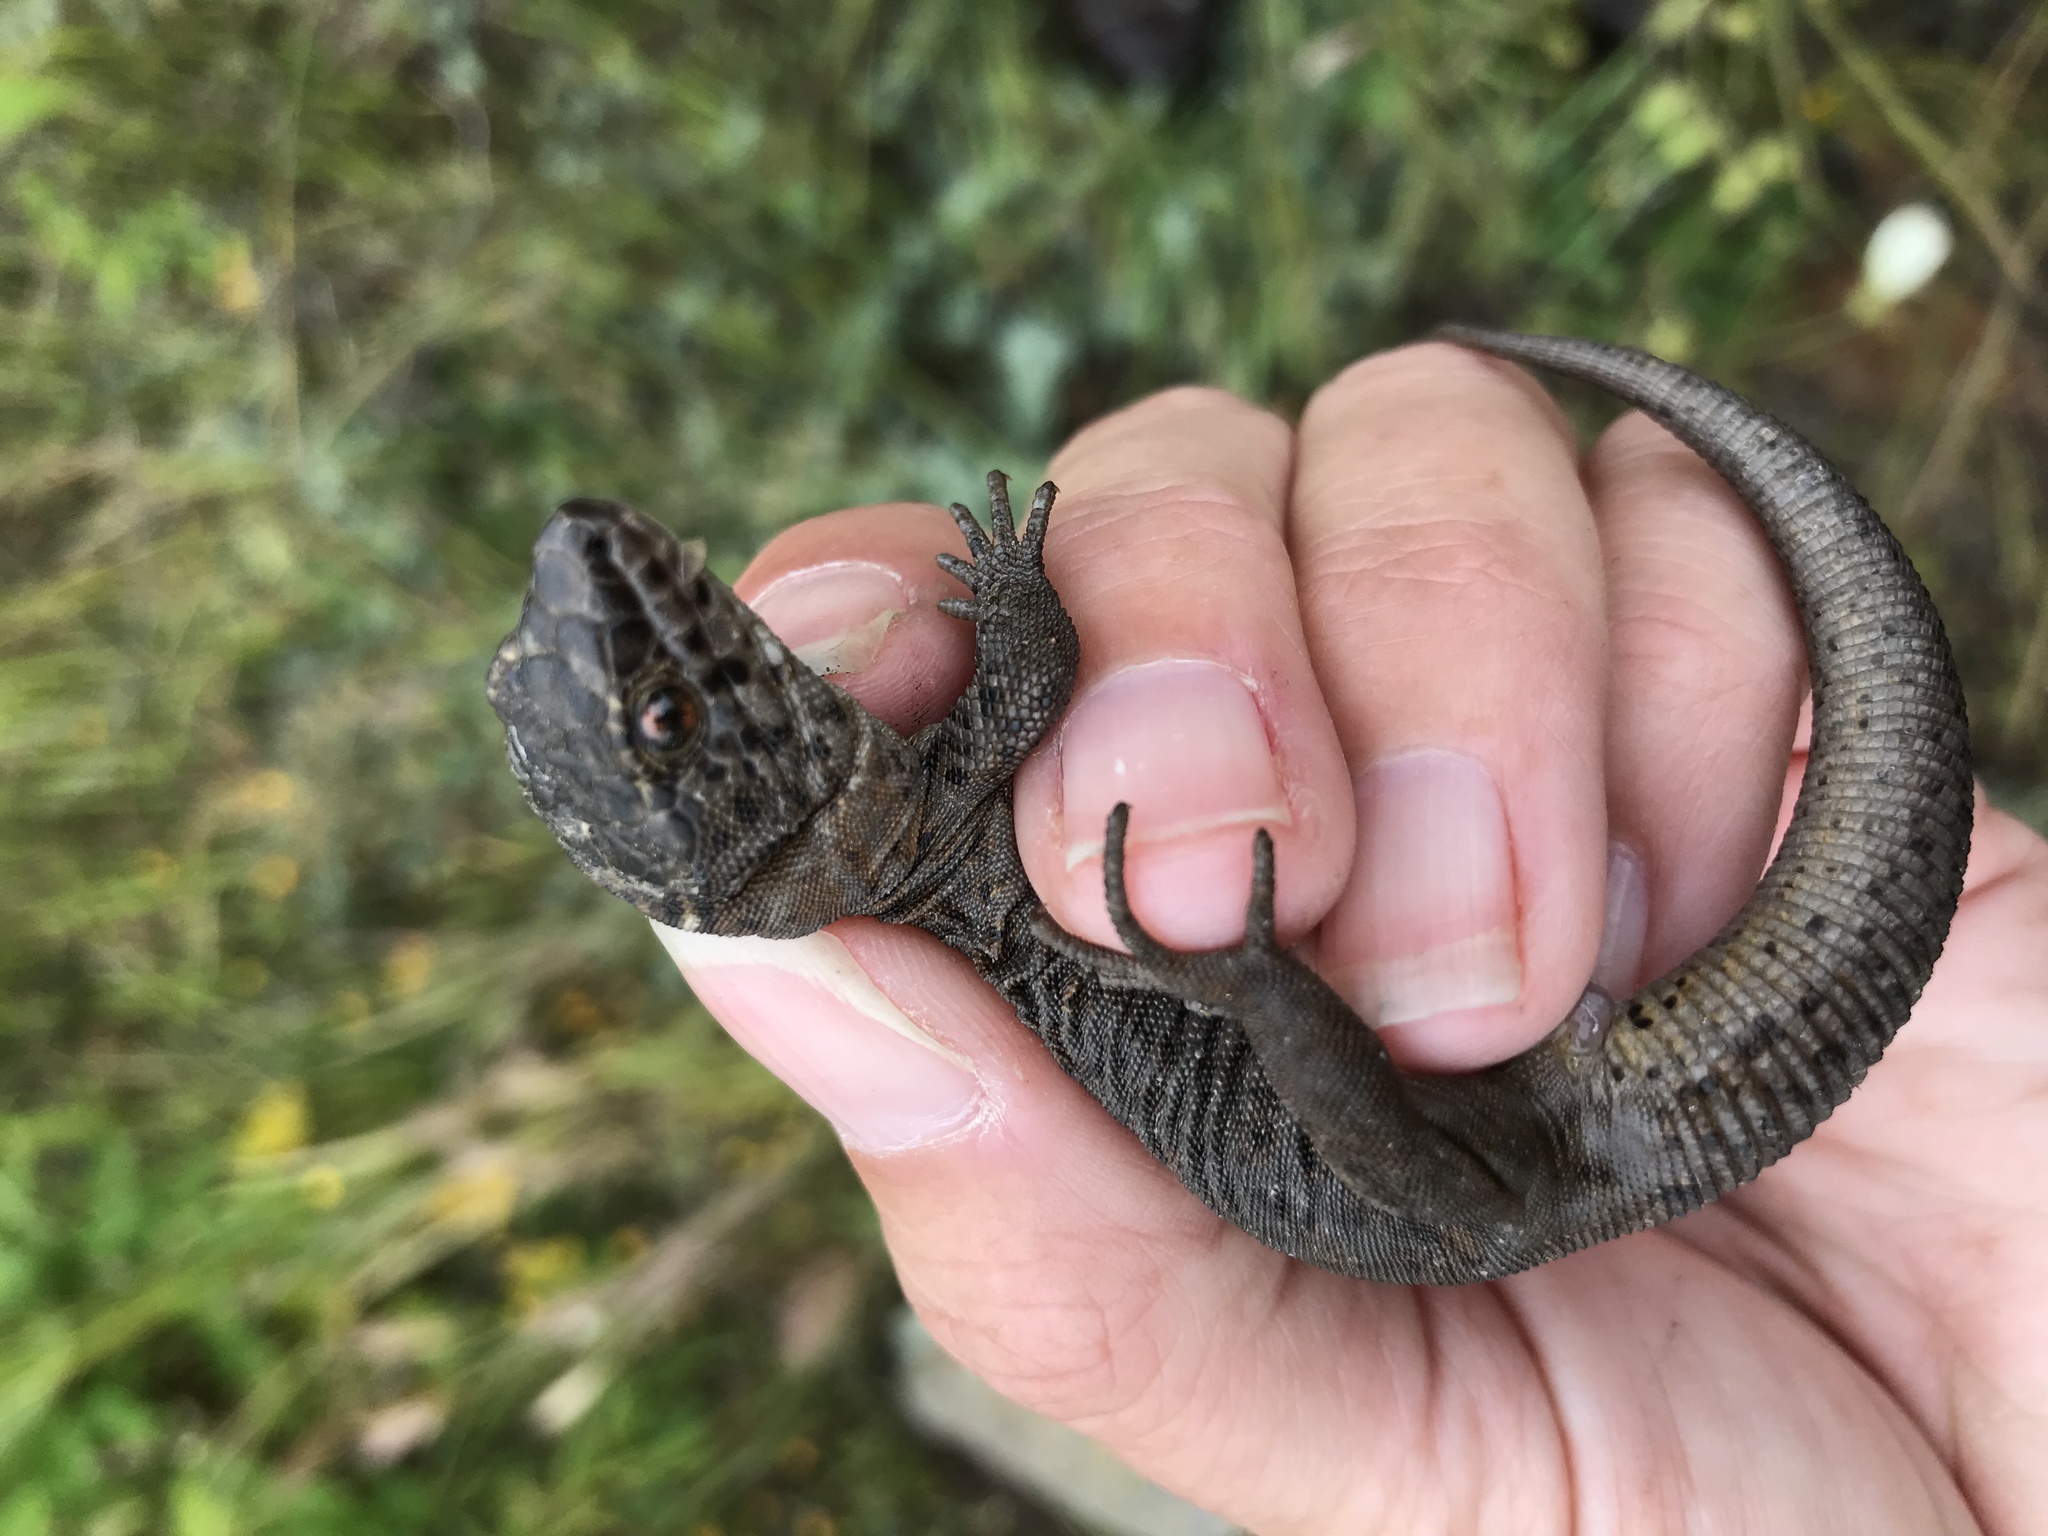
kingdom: Animalia
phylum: Chordata
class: Squamata
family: Xantusiidae
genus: Xantusia
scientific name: Xantusia riversiana
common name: Island night lizard
